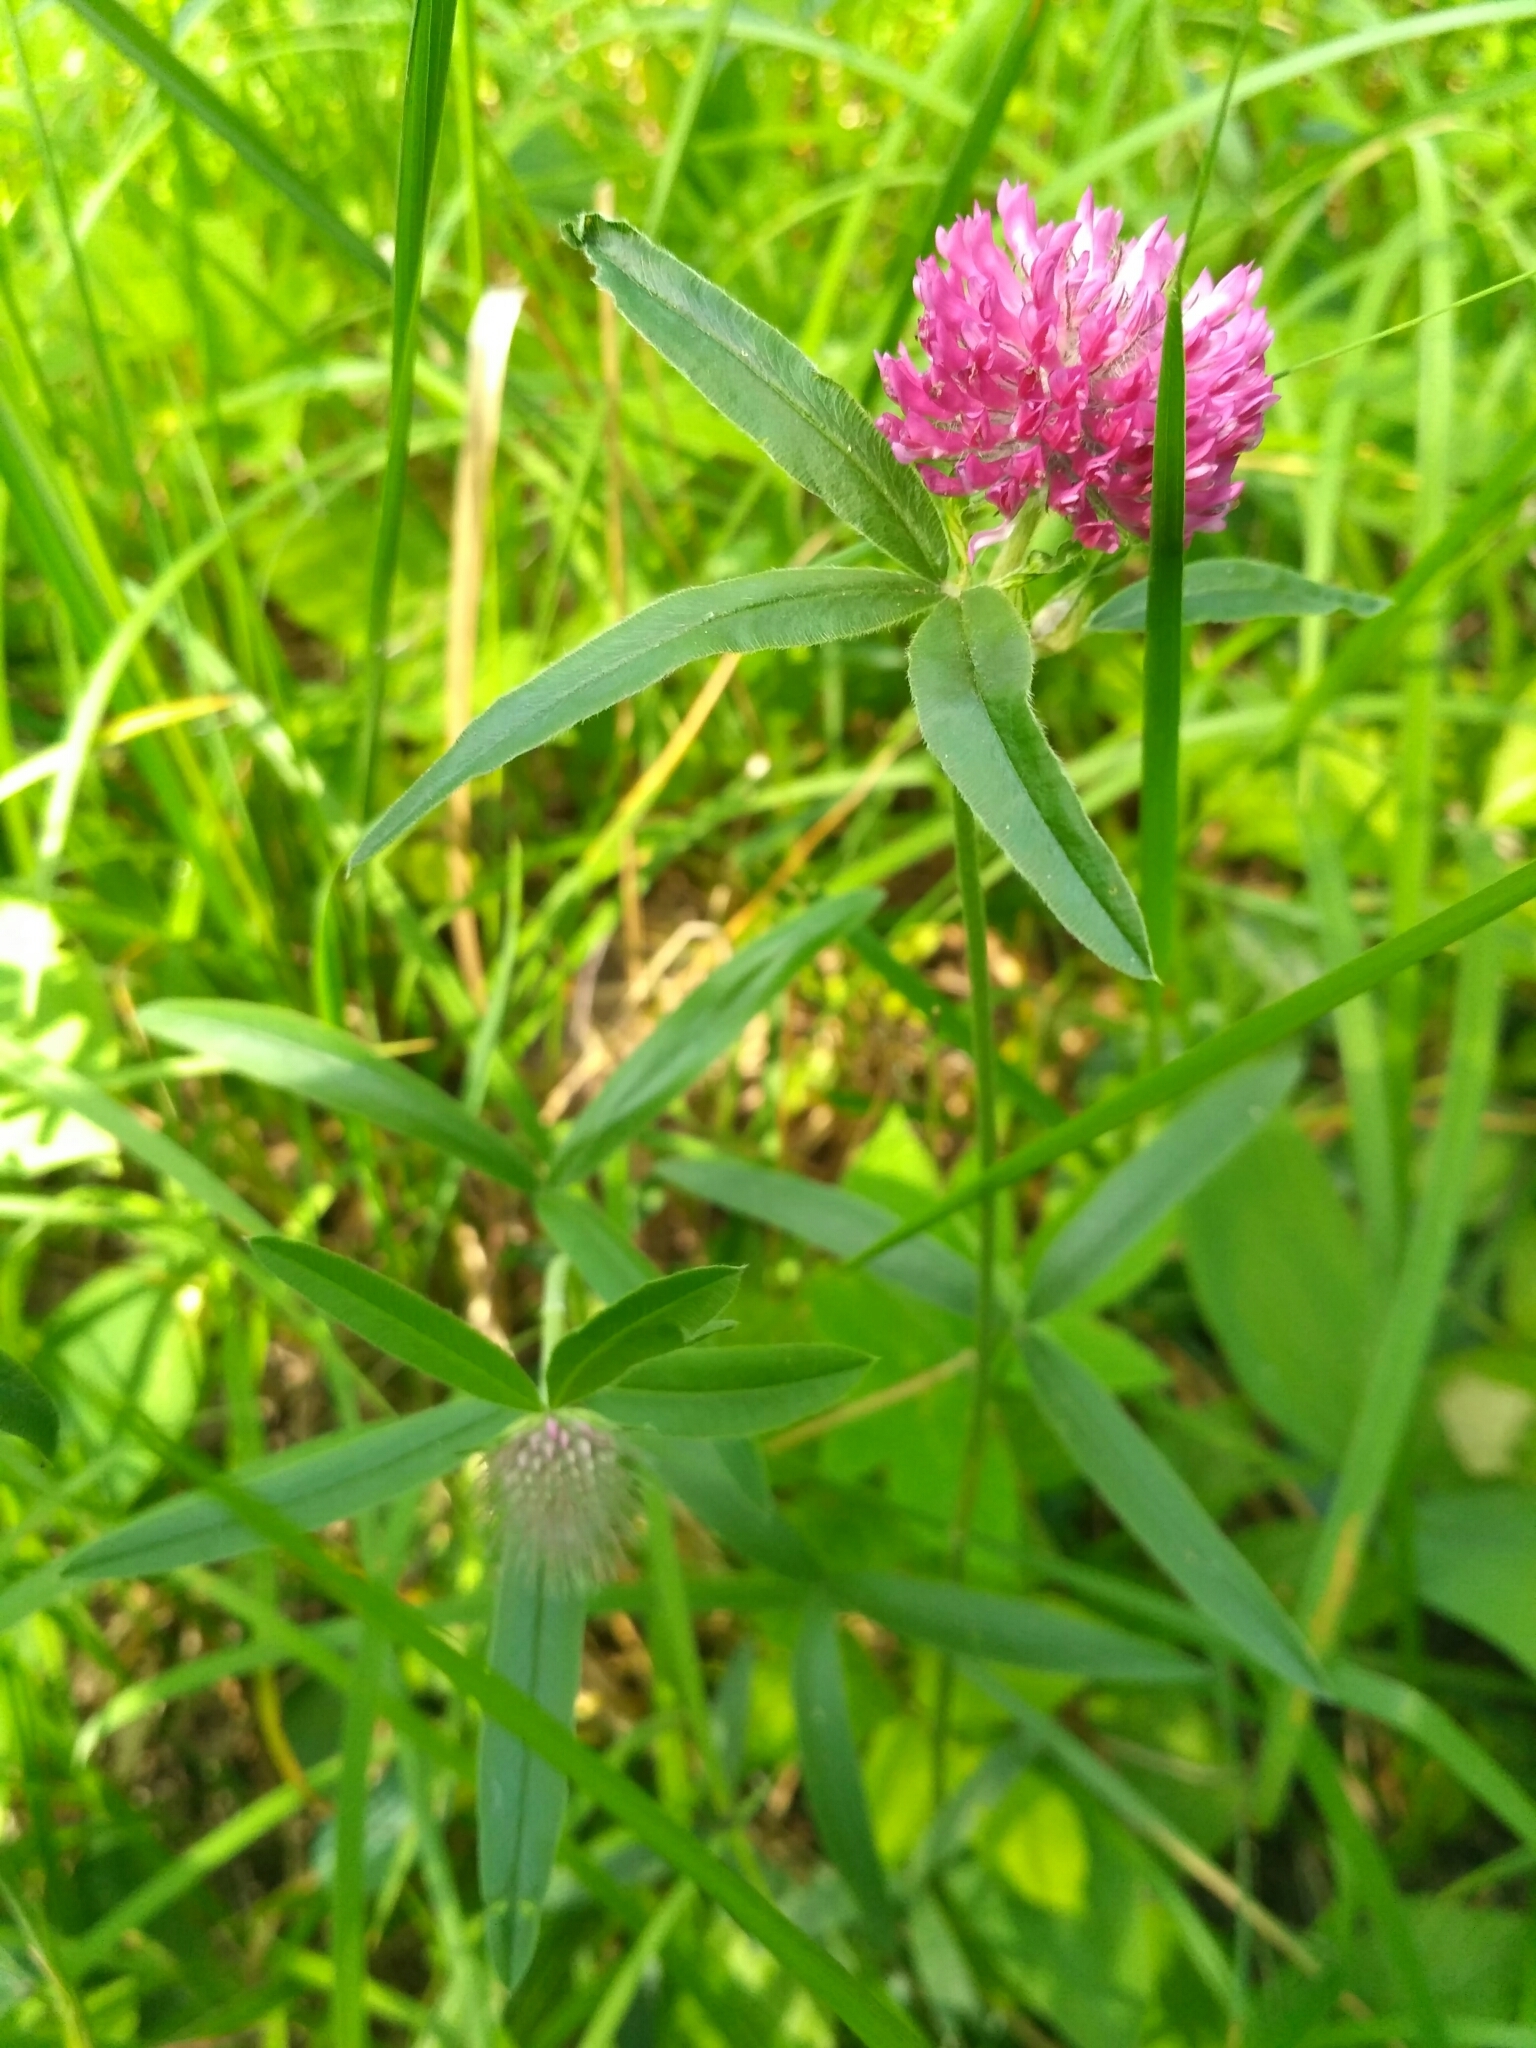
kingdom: Plantae
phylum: Tracheophyta
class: Magnoliopsida
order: Fabales
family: Fabaceae
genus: Trifolium
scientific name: Trifolium alpestre
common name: Owl-head clover
